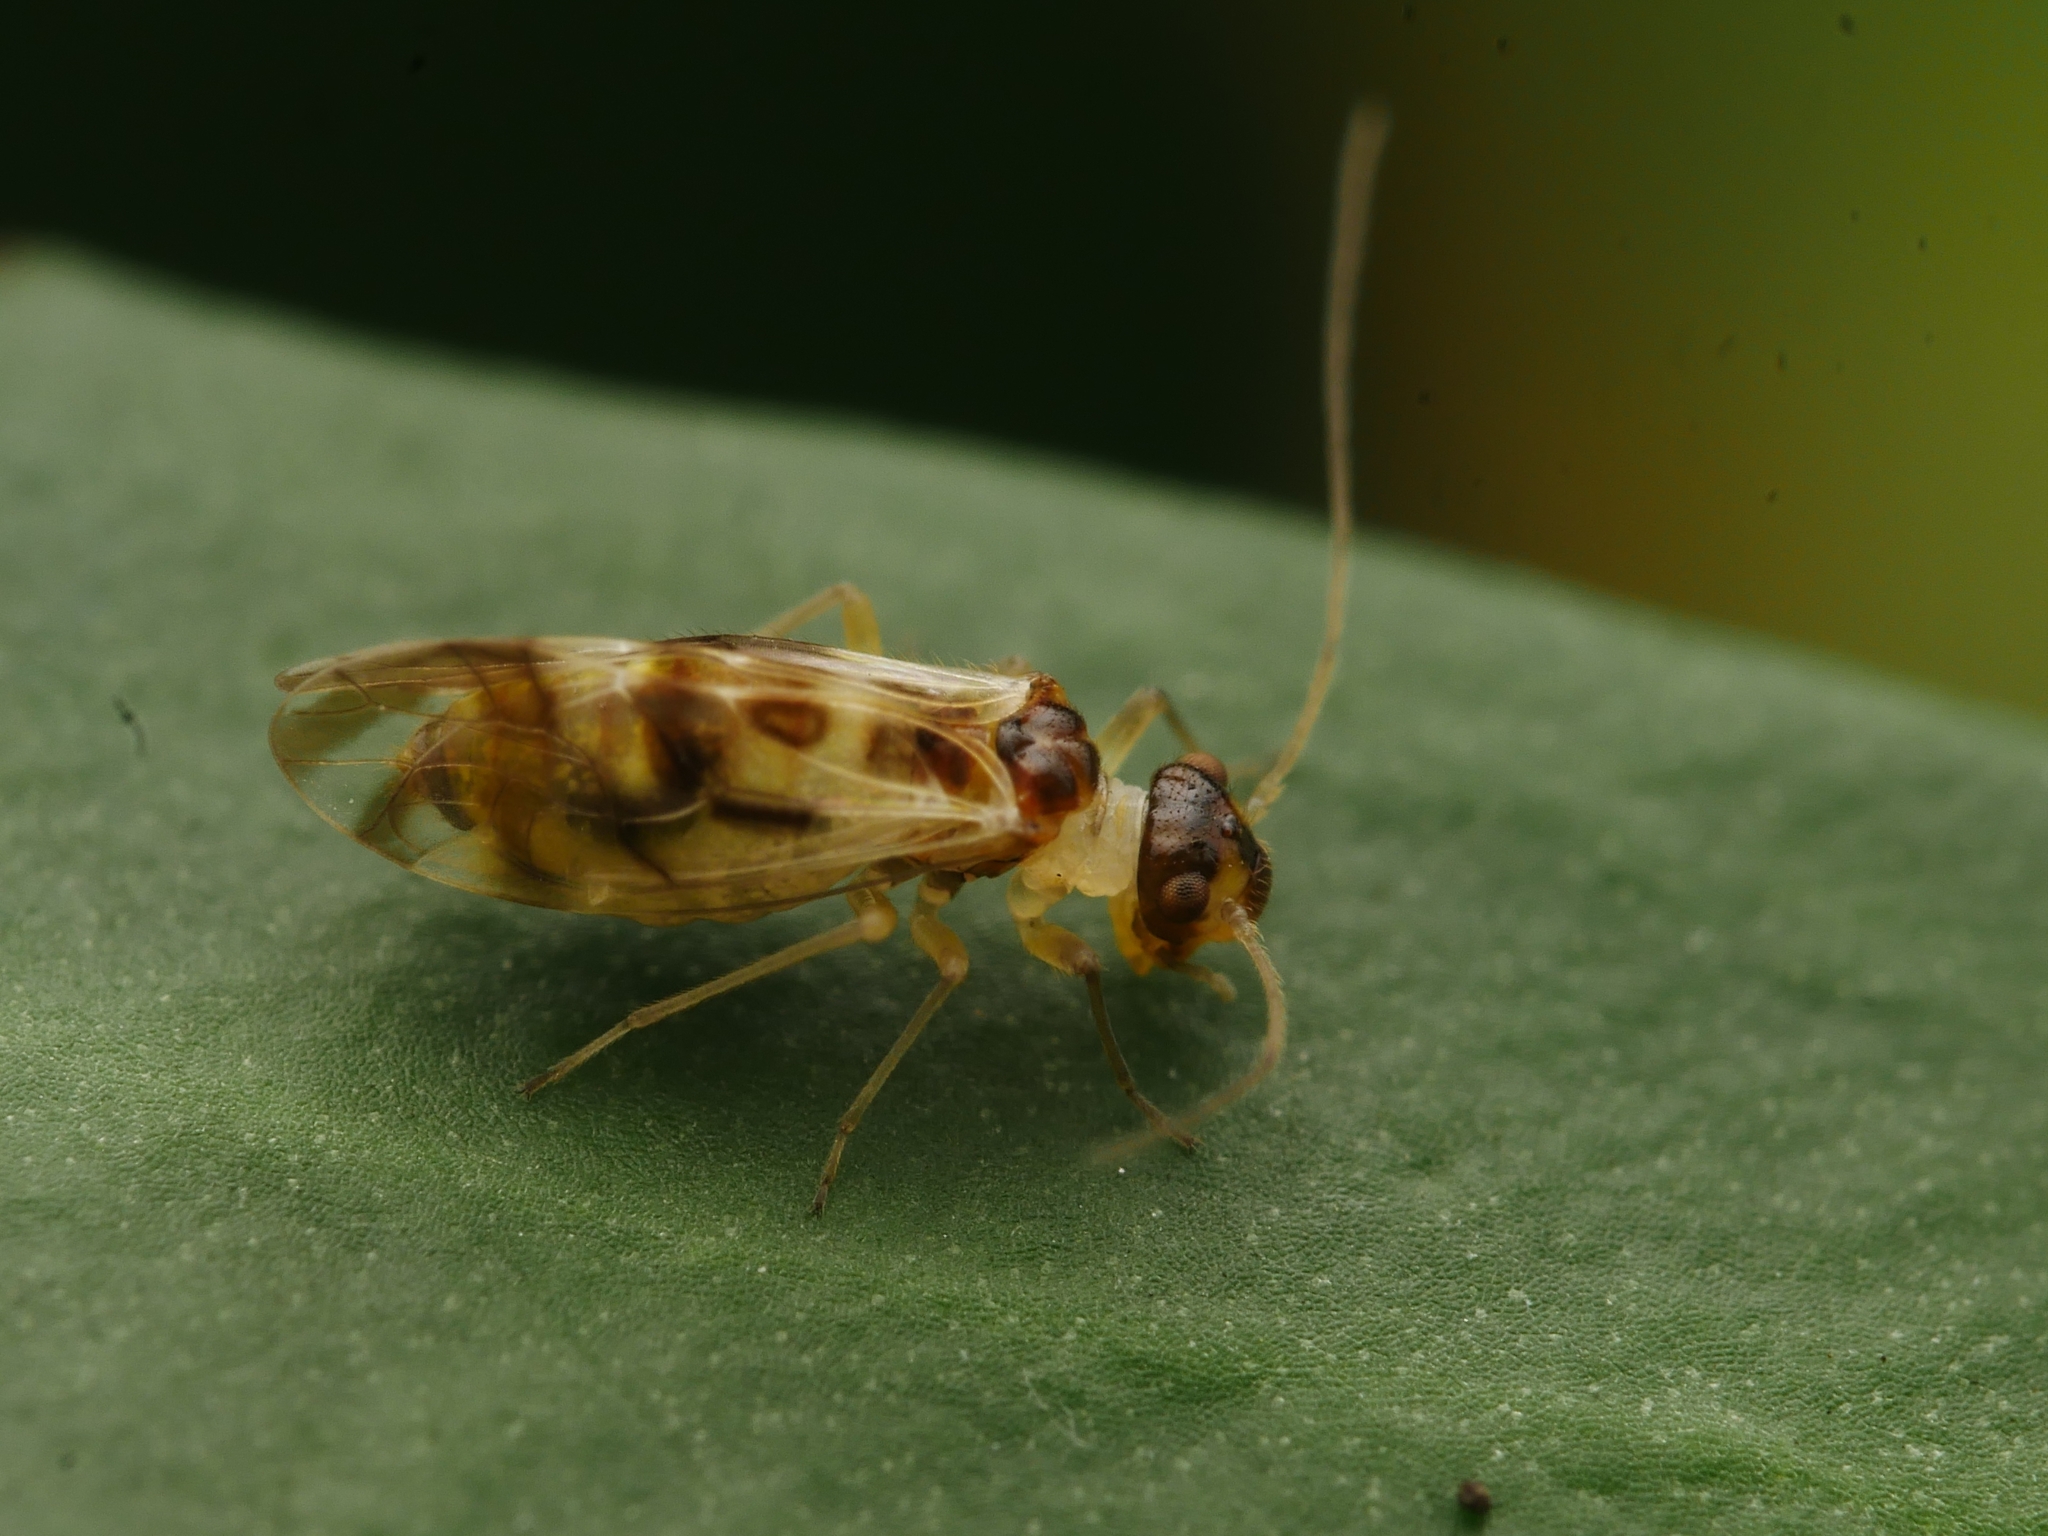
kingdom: Animalia
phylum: Arthropoda
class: Insecta
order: Psocodea
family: Stenopsocidae
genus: Graphopsocus
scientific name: Graphopsocus cruciatus
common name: Lizard bark louse
